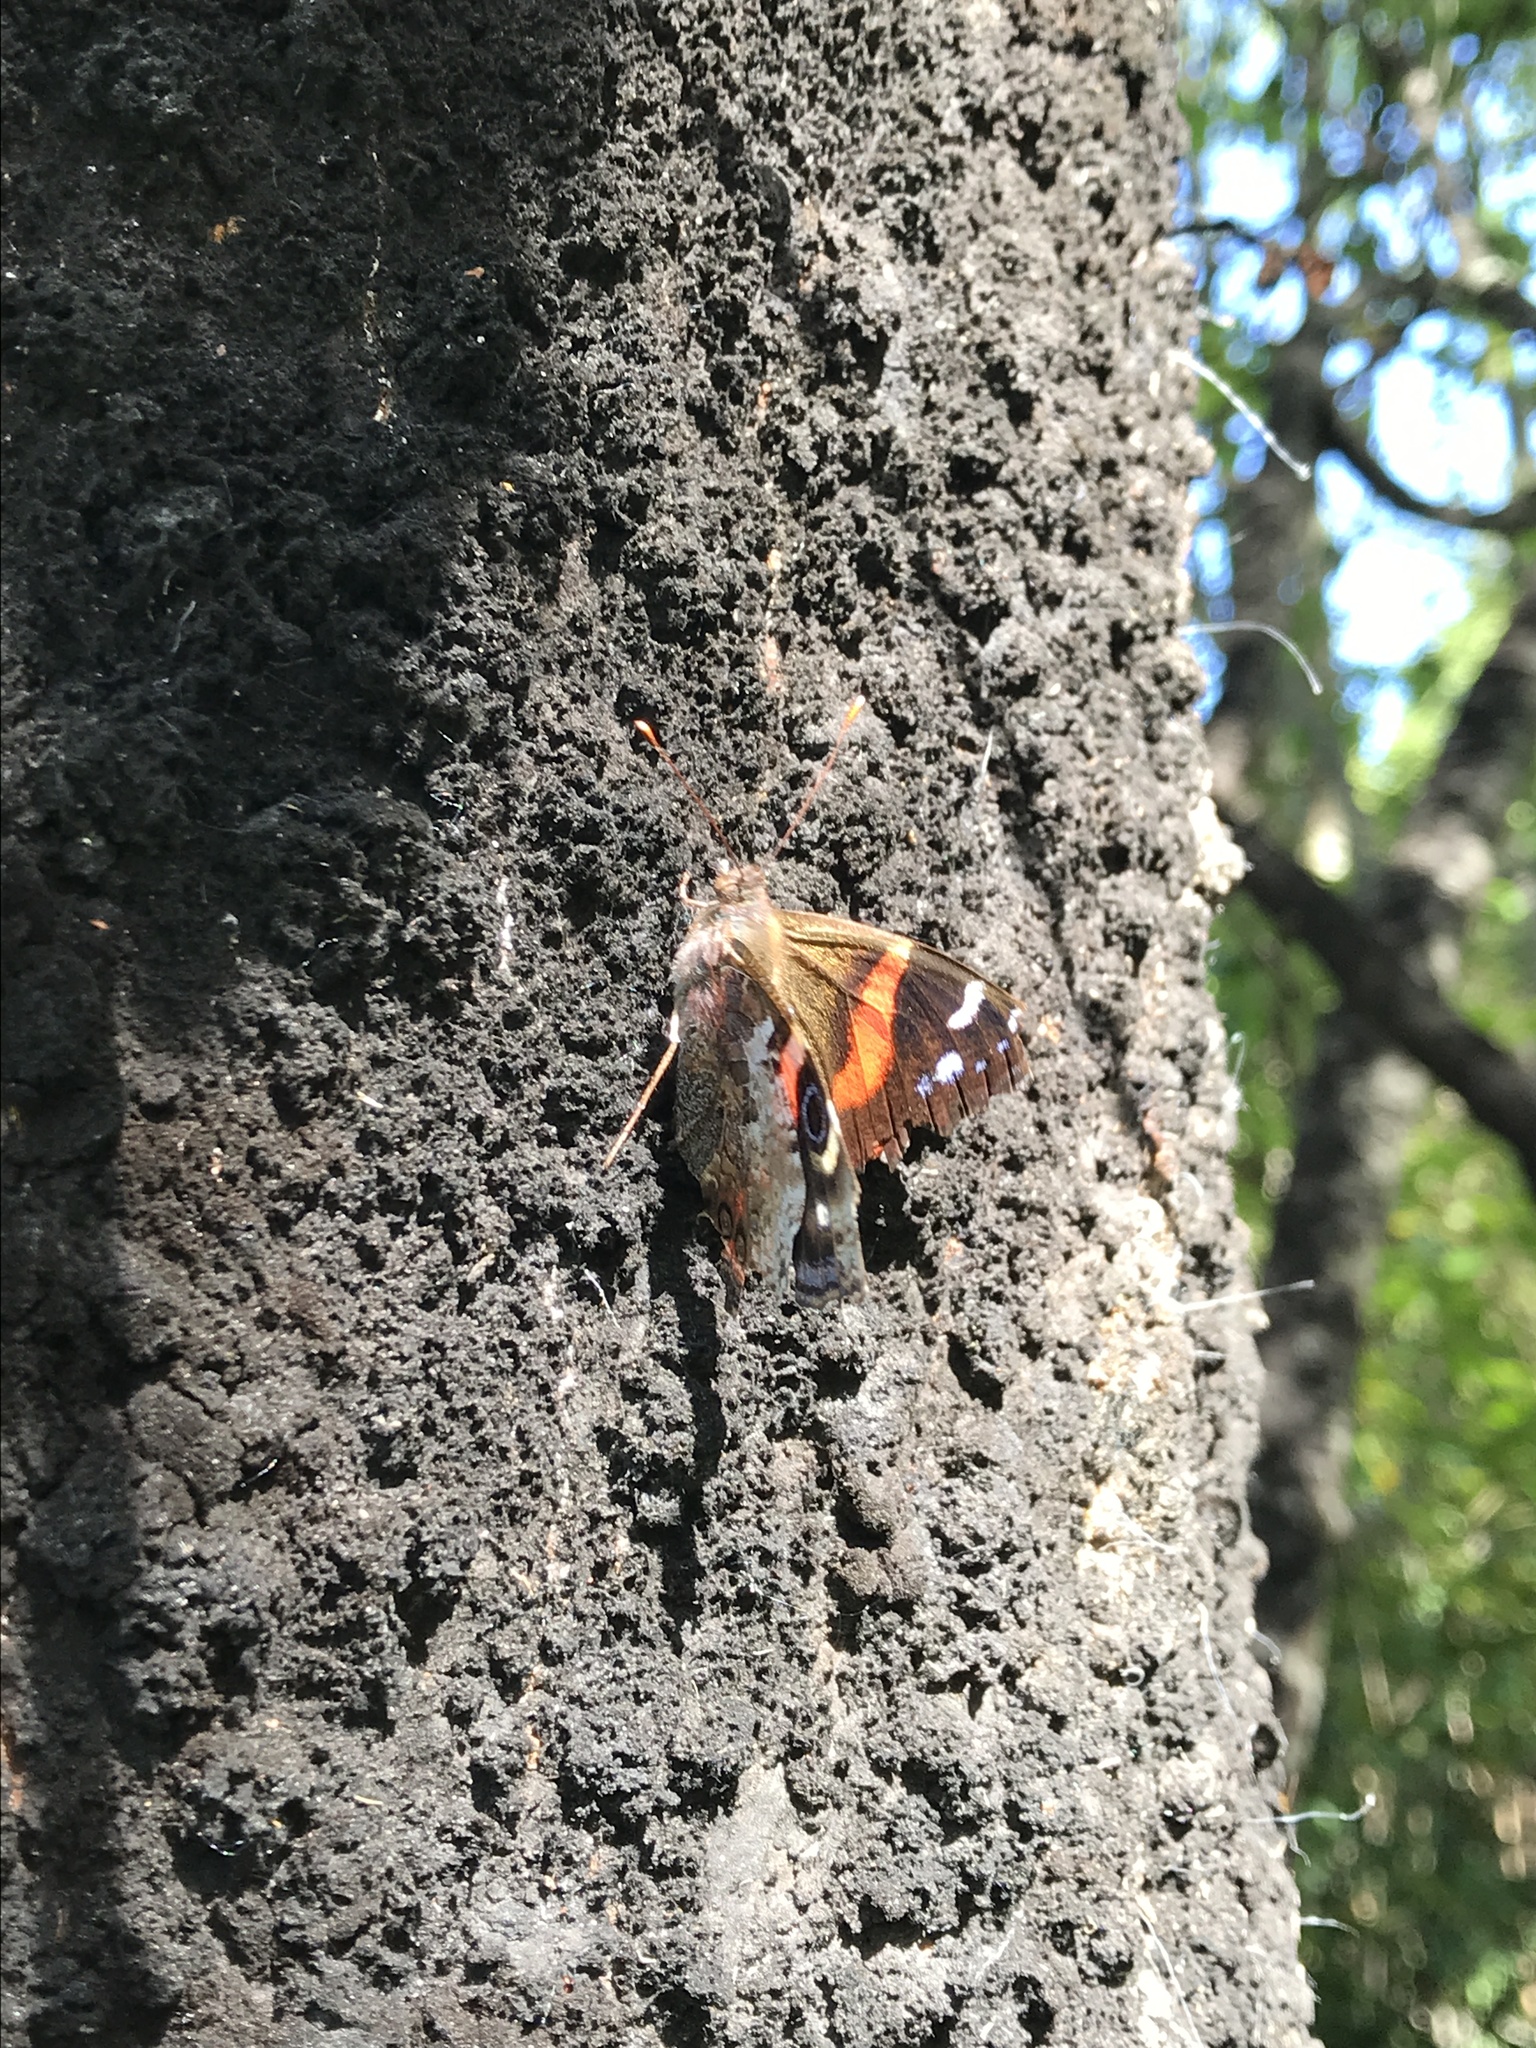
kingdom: Animalia
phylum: Arthropoda
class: Insecta
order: Lepidoptera
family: Nymphalidae
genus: Vanessa
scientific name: Vanessa gonerilla
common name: New zealand red admiral
